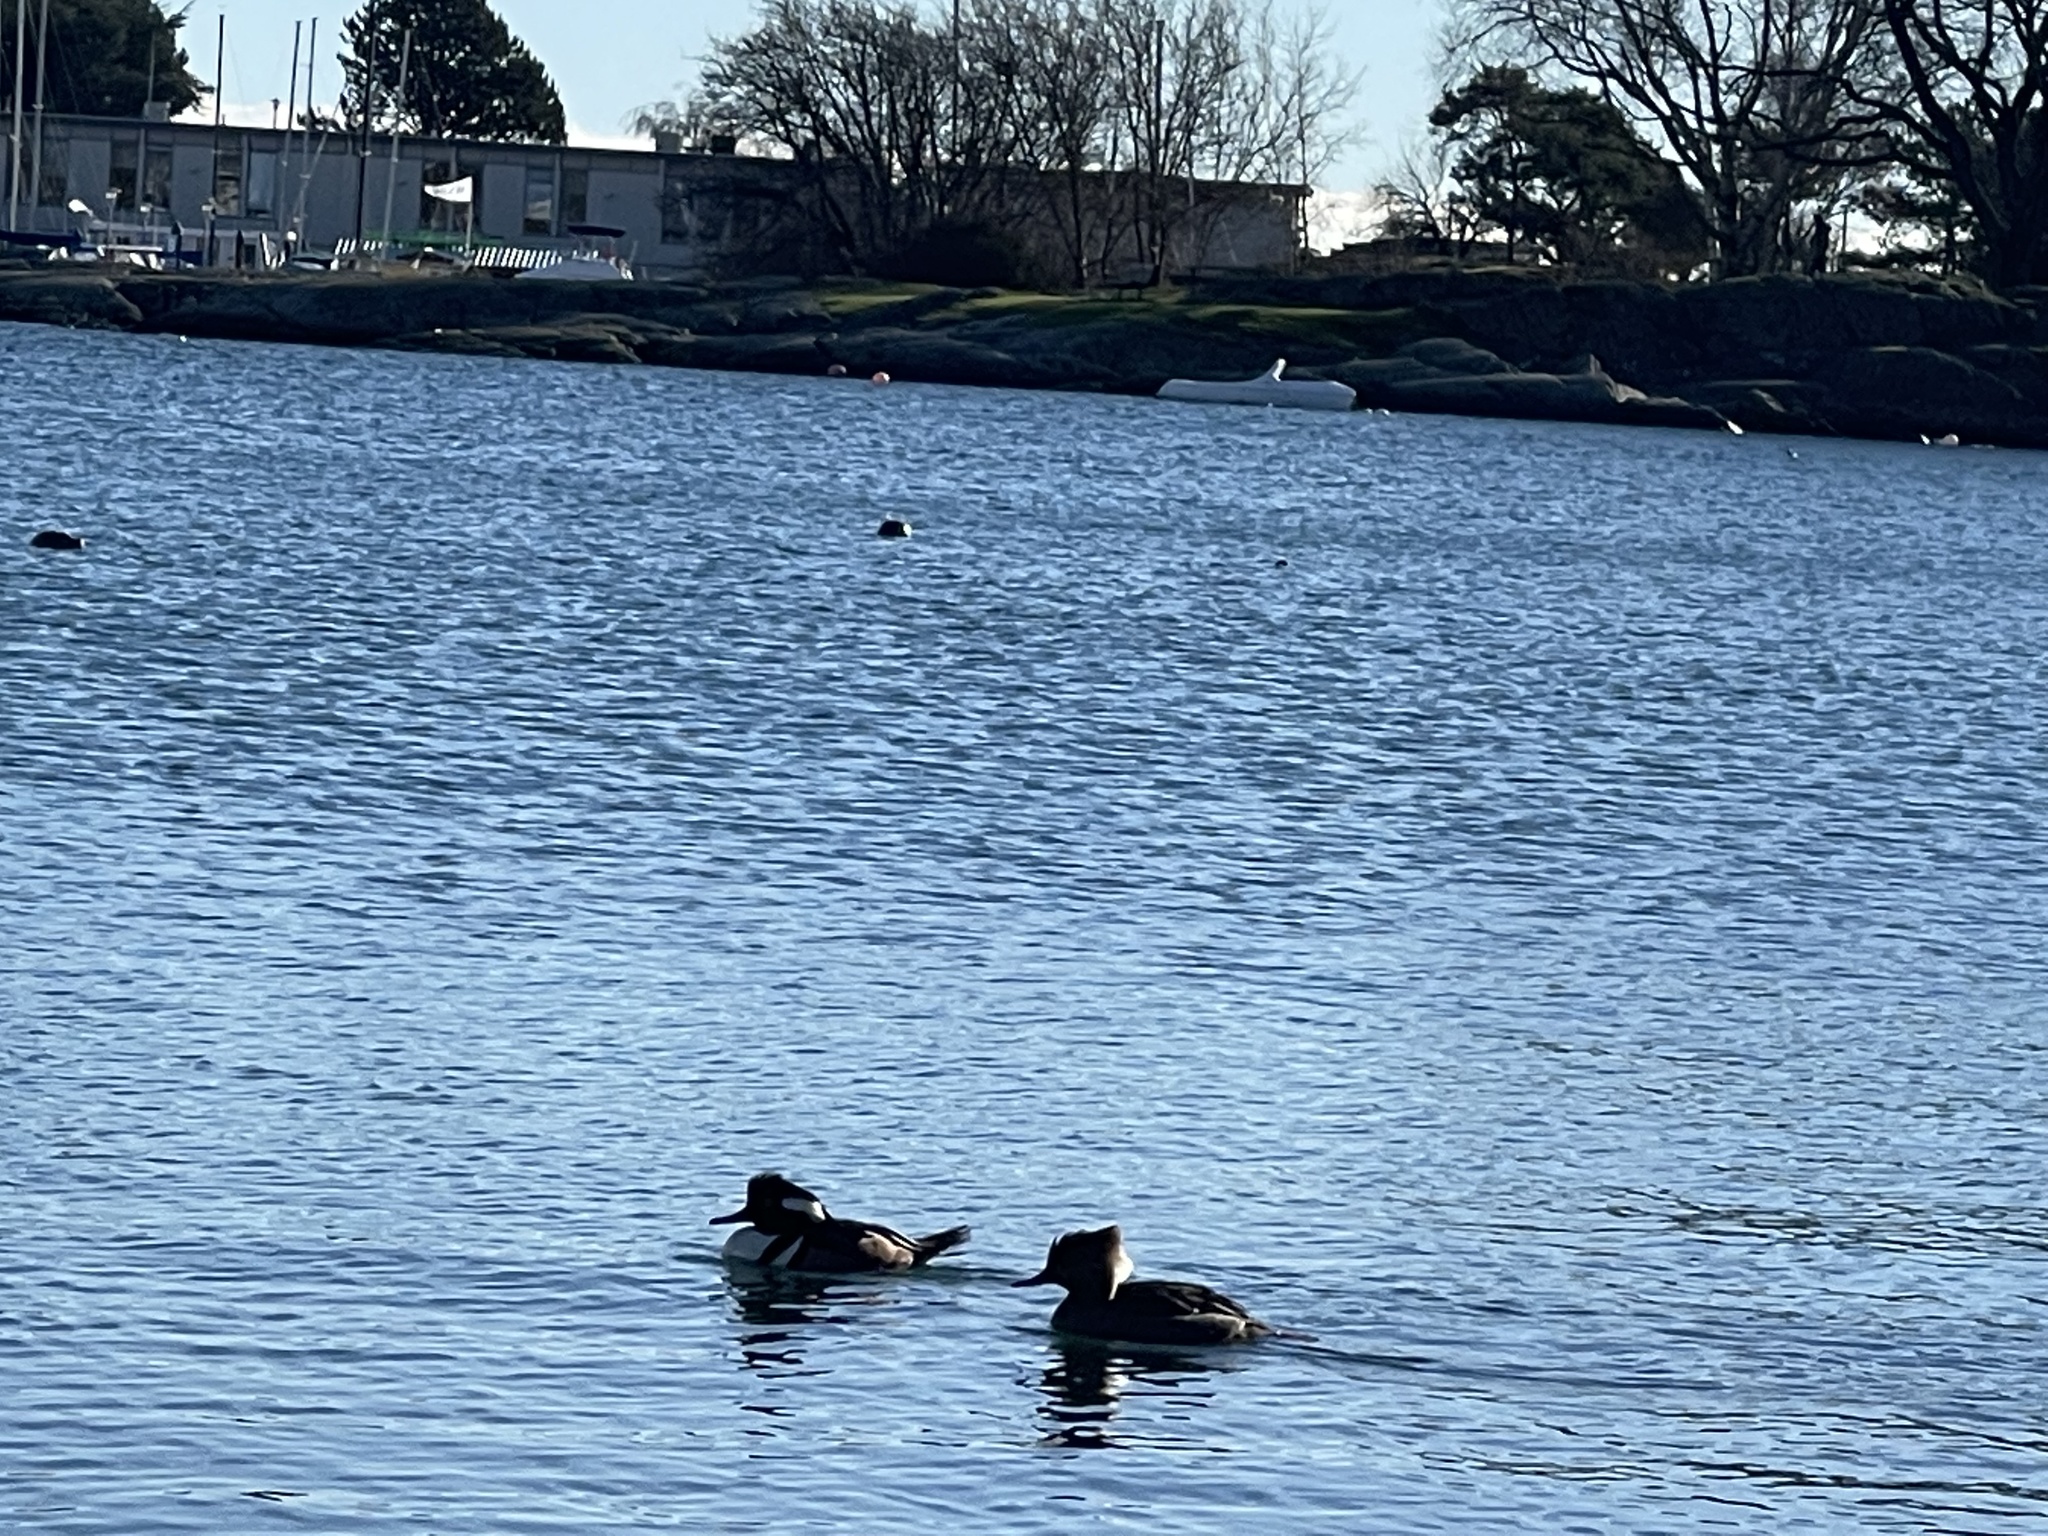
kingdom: Animalia
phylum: Chordata
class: Aves
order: Anseriformes
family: Anatidae
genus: Lophodytes
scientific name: Lophodytes cucullatus
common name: Hooded merganser
